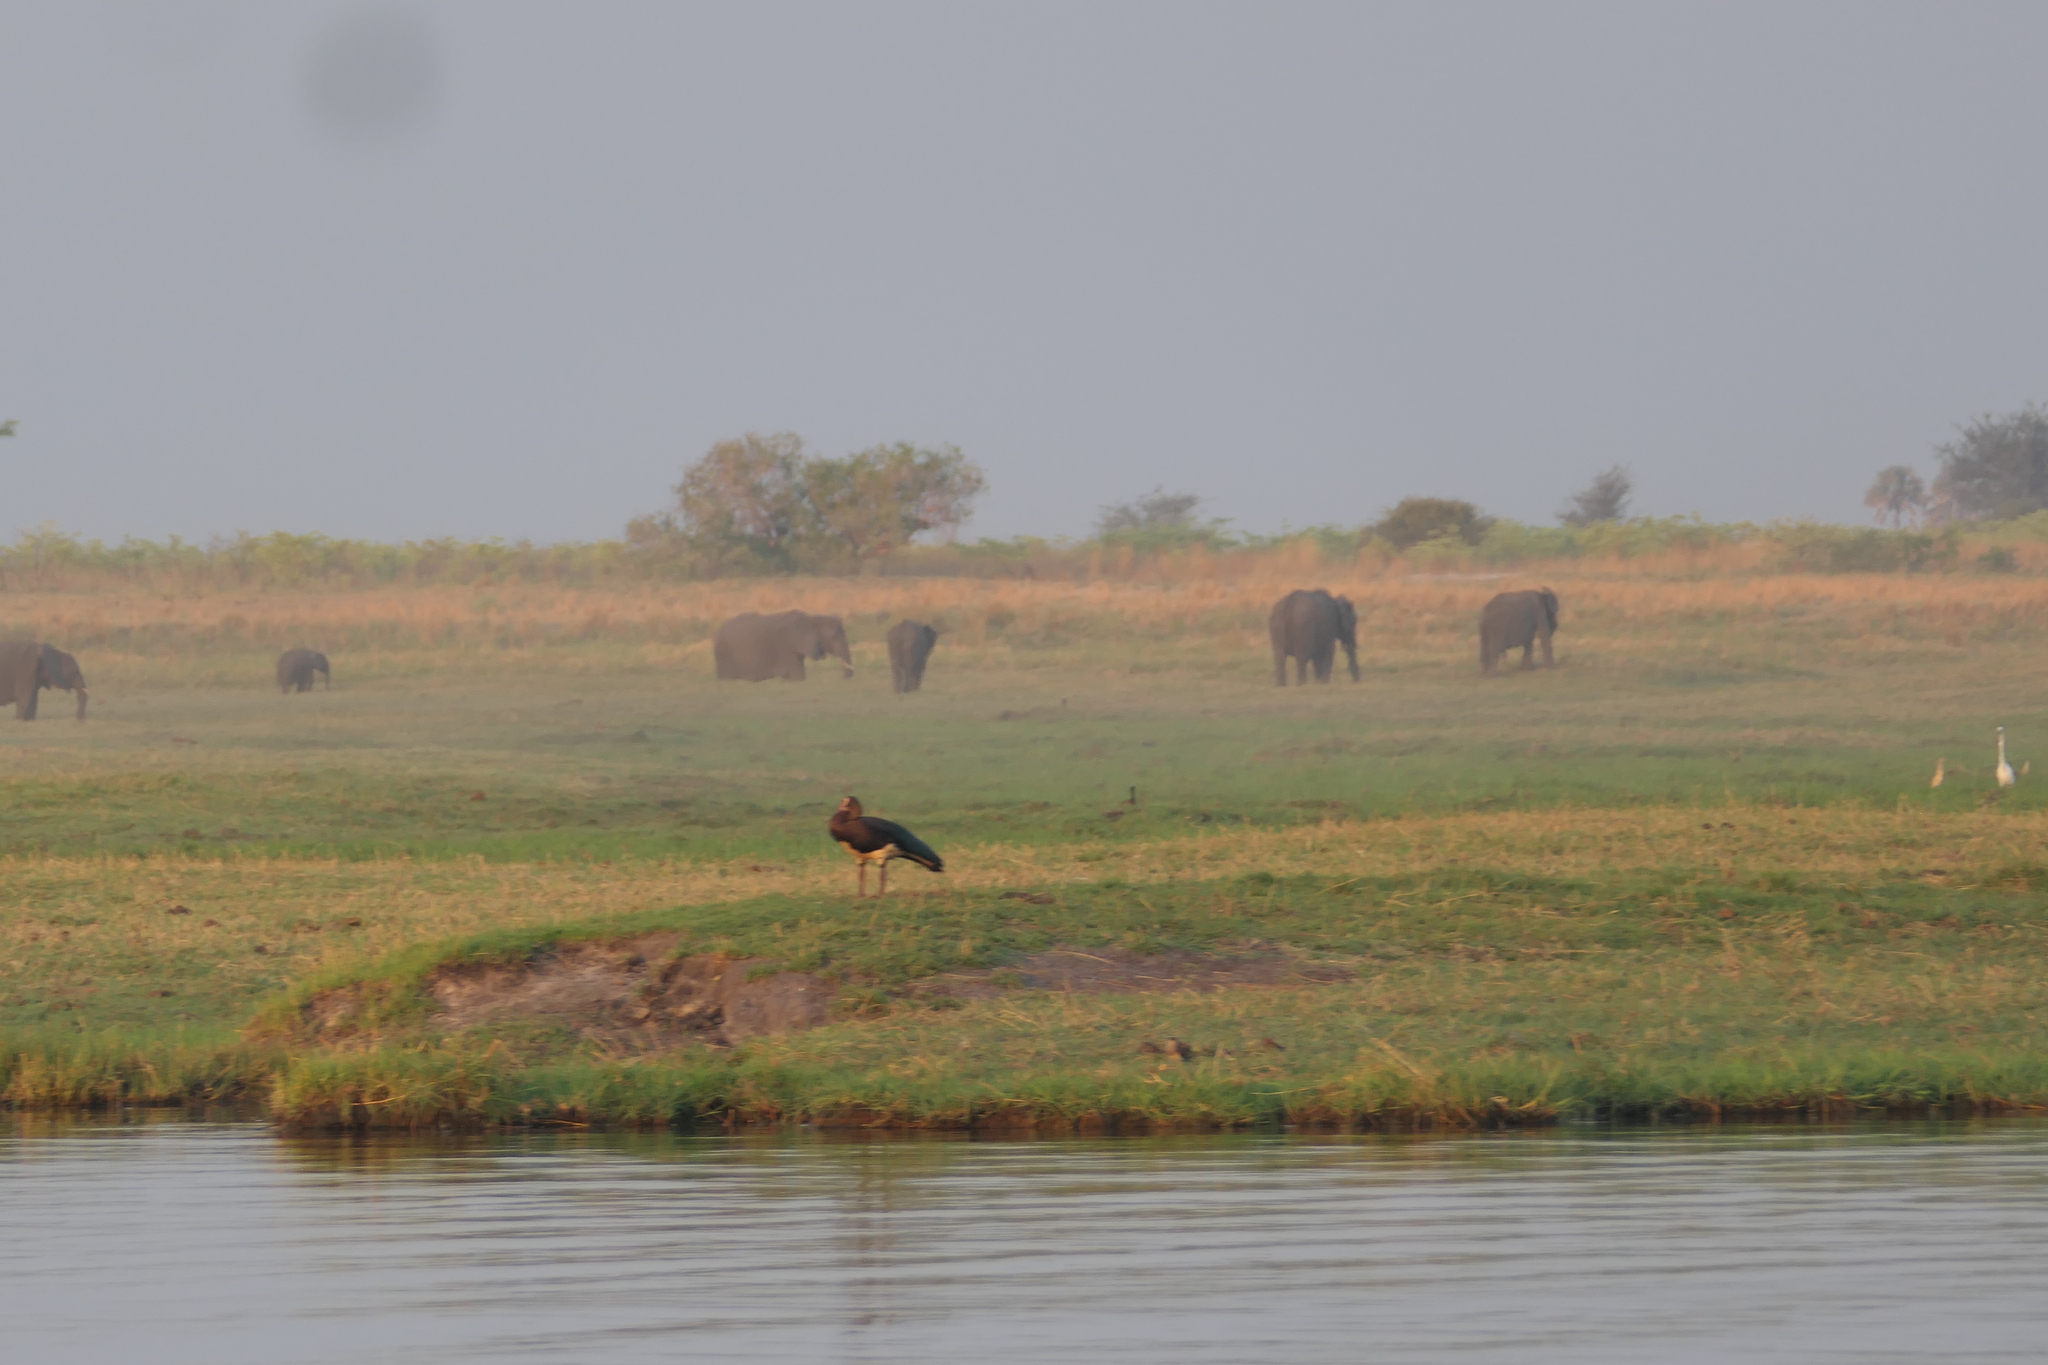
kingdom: Animalia
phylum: Chordata
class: Aves
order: Anseriformes
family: Anatidae
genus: Plectropterus
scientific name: Plectropterus gambensis
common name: Spur-winged goose
